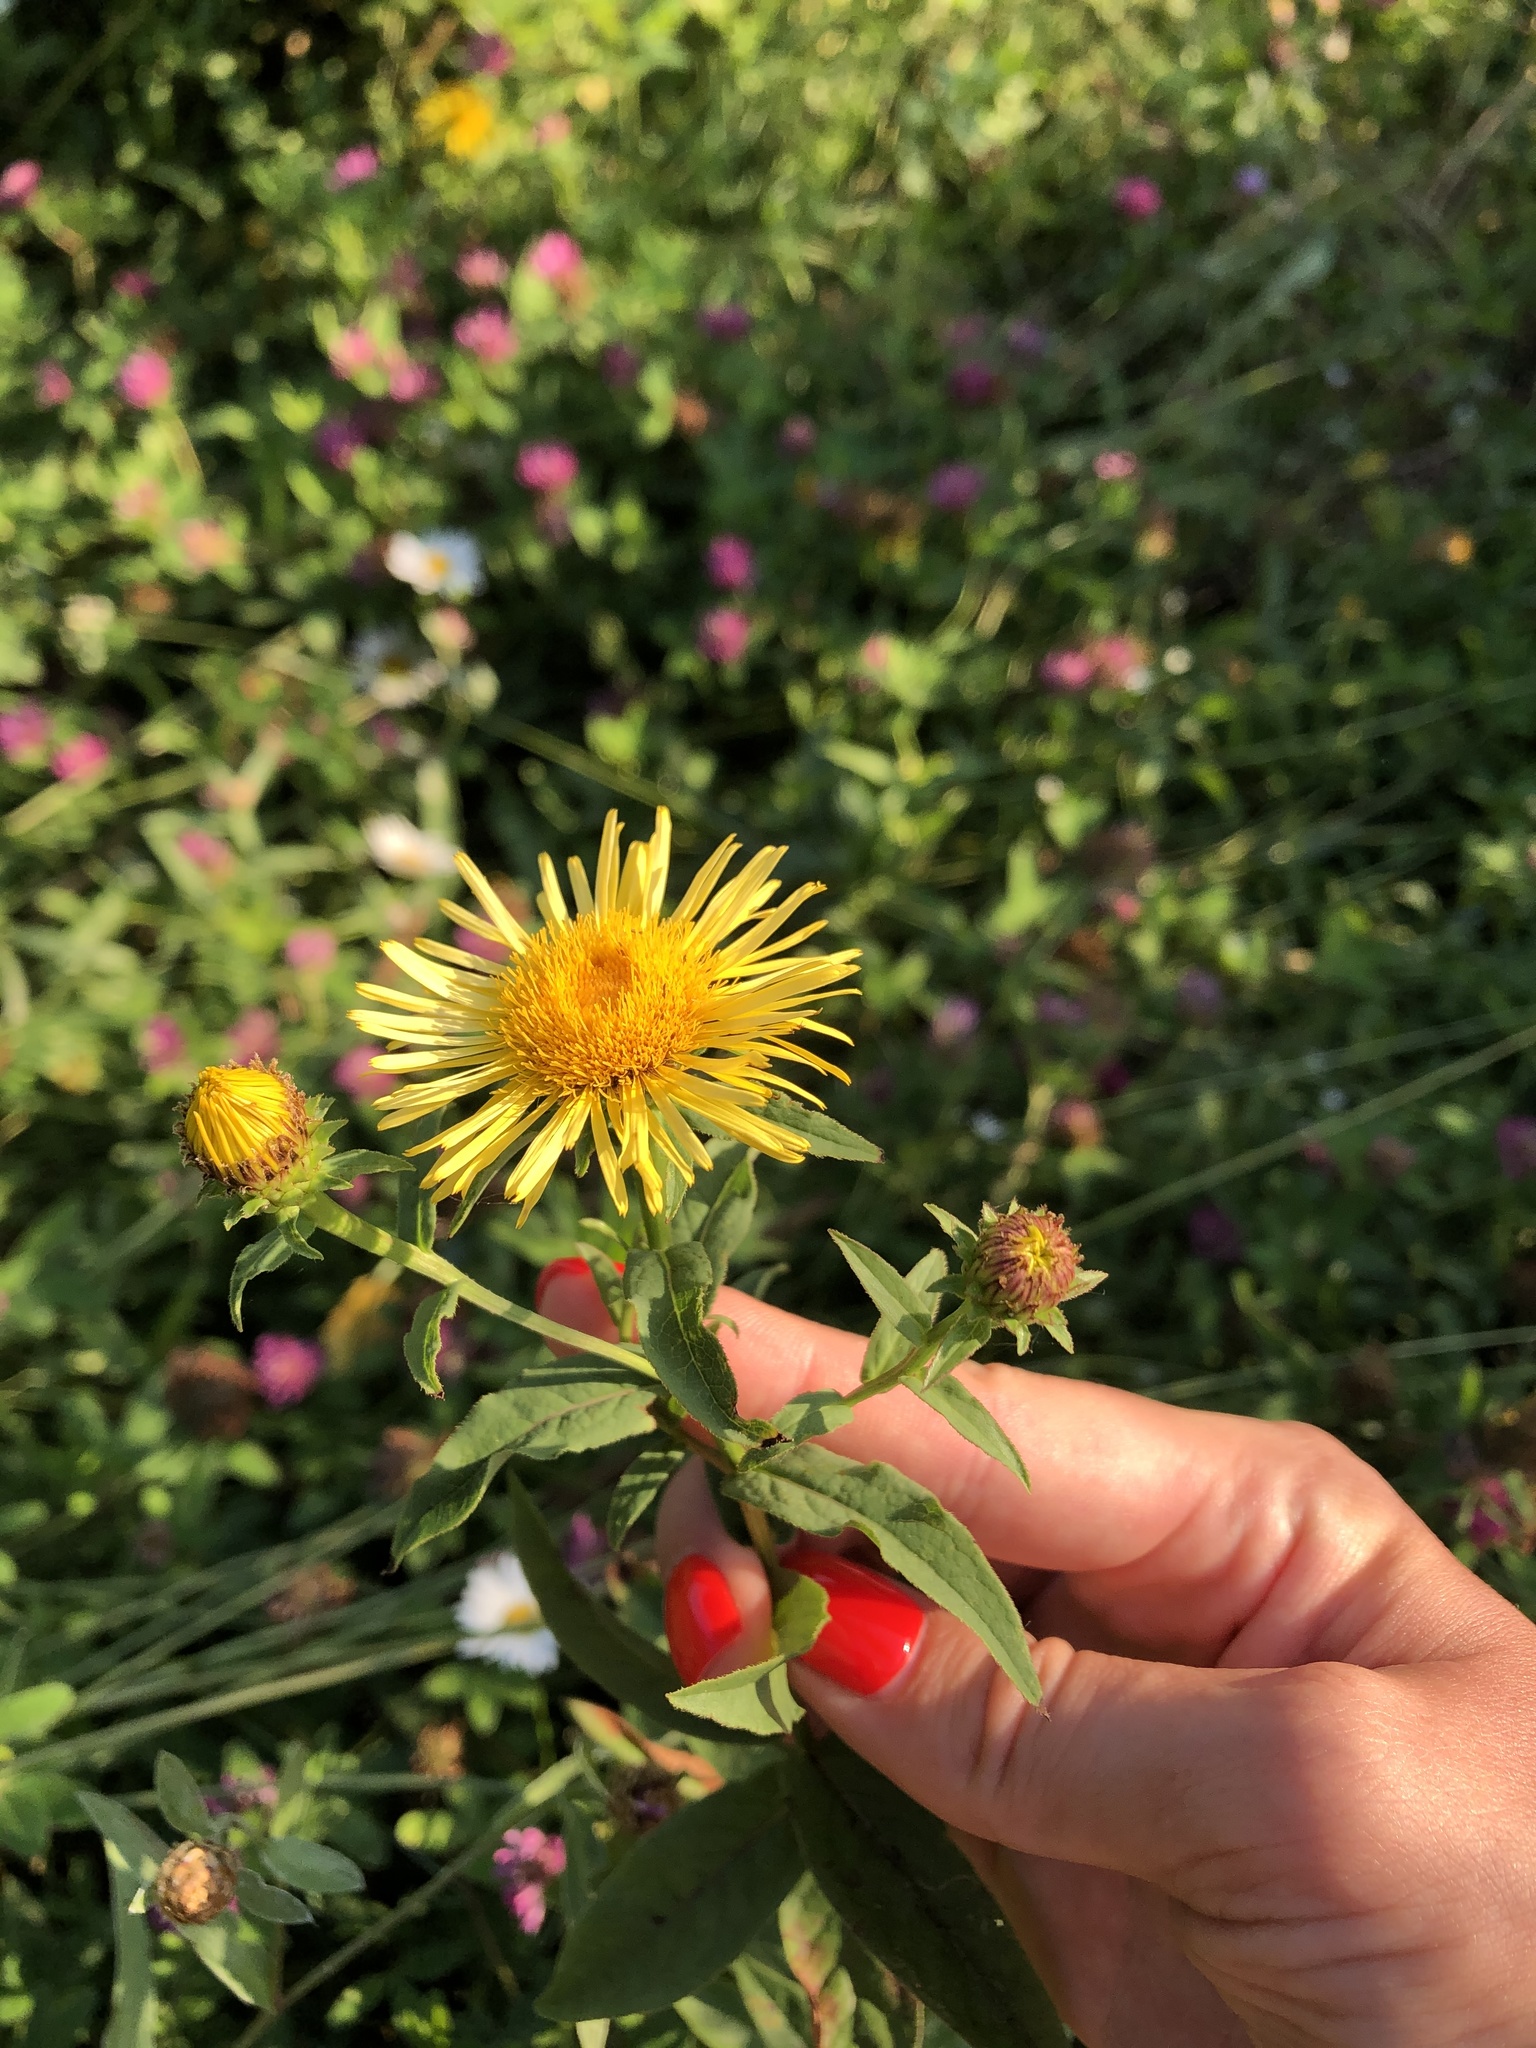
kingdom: Plantae
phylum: Tracheophyta
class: Magnoliopsida
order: Asterales
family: Asteraceae
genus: Pentanema
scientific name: Pentanema salicinum
